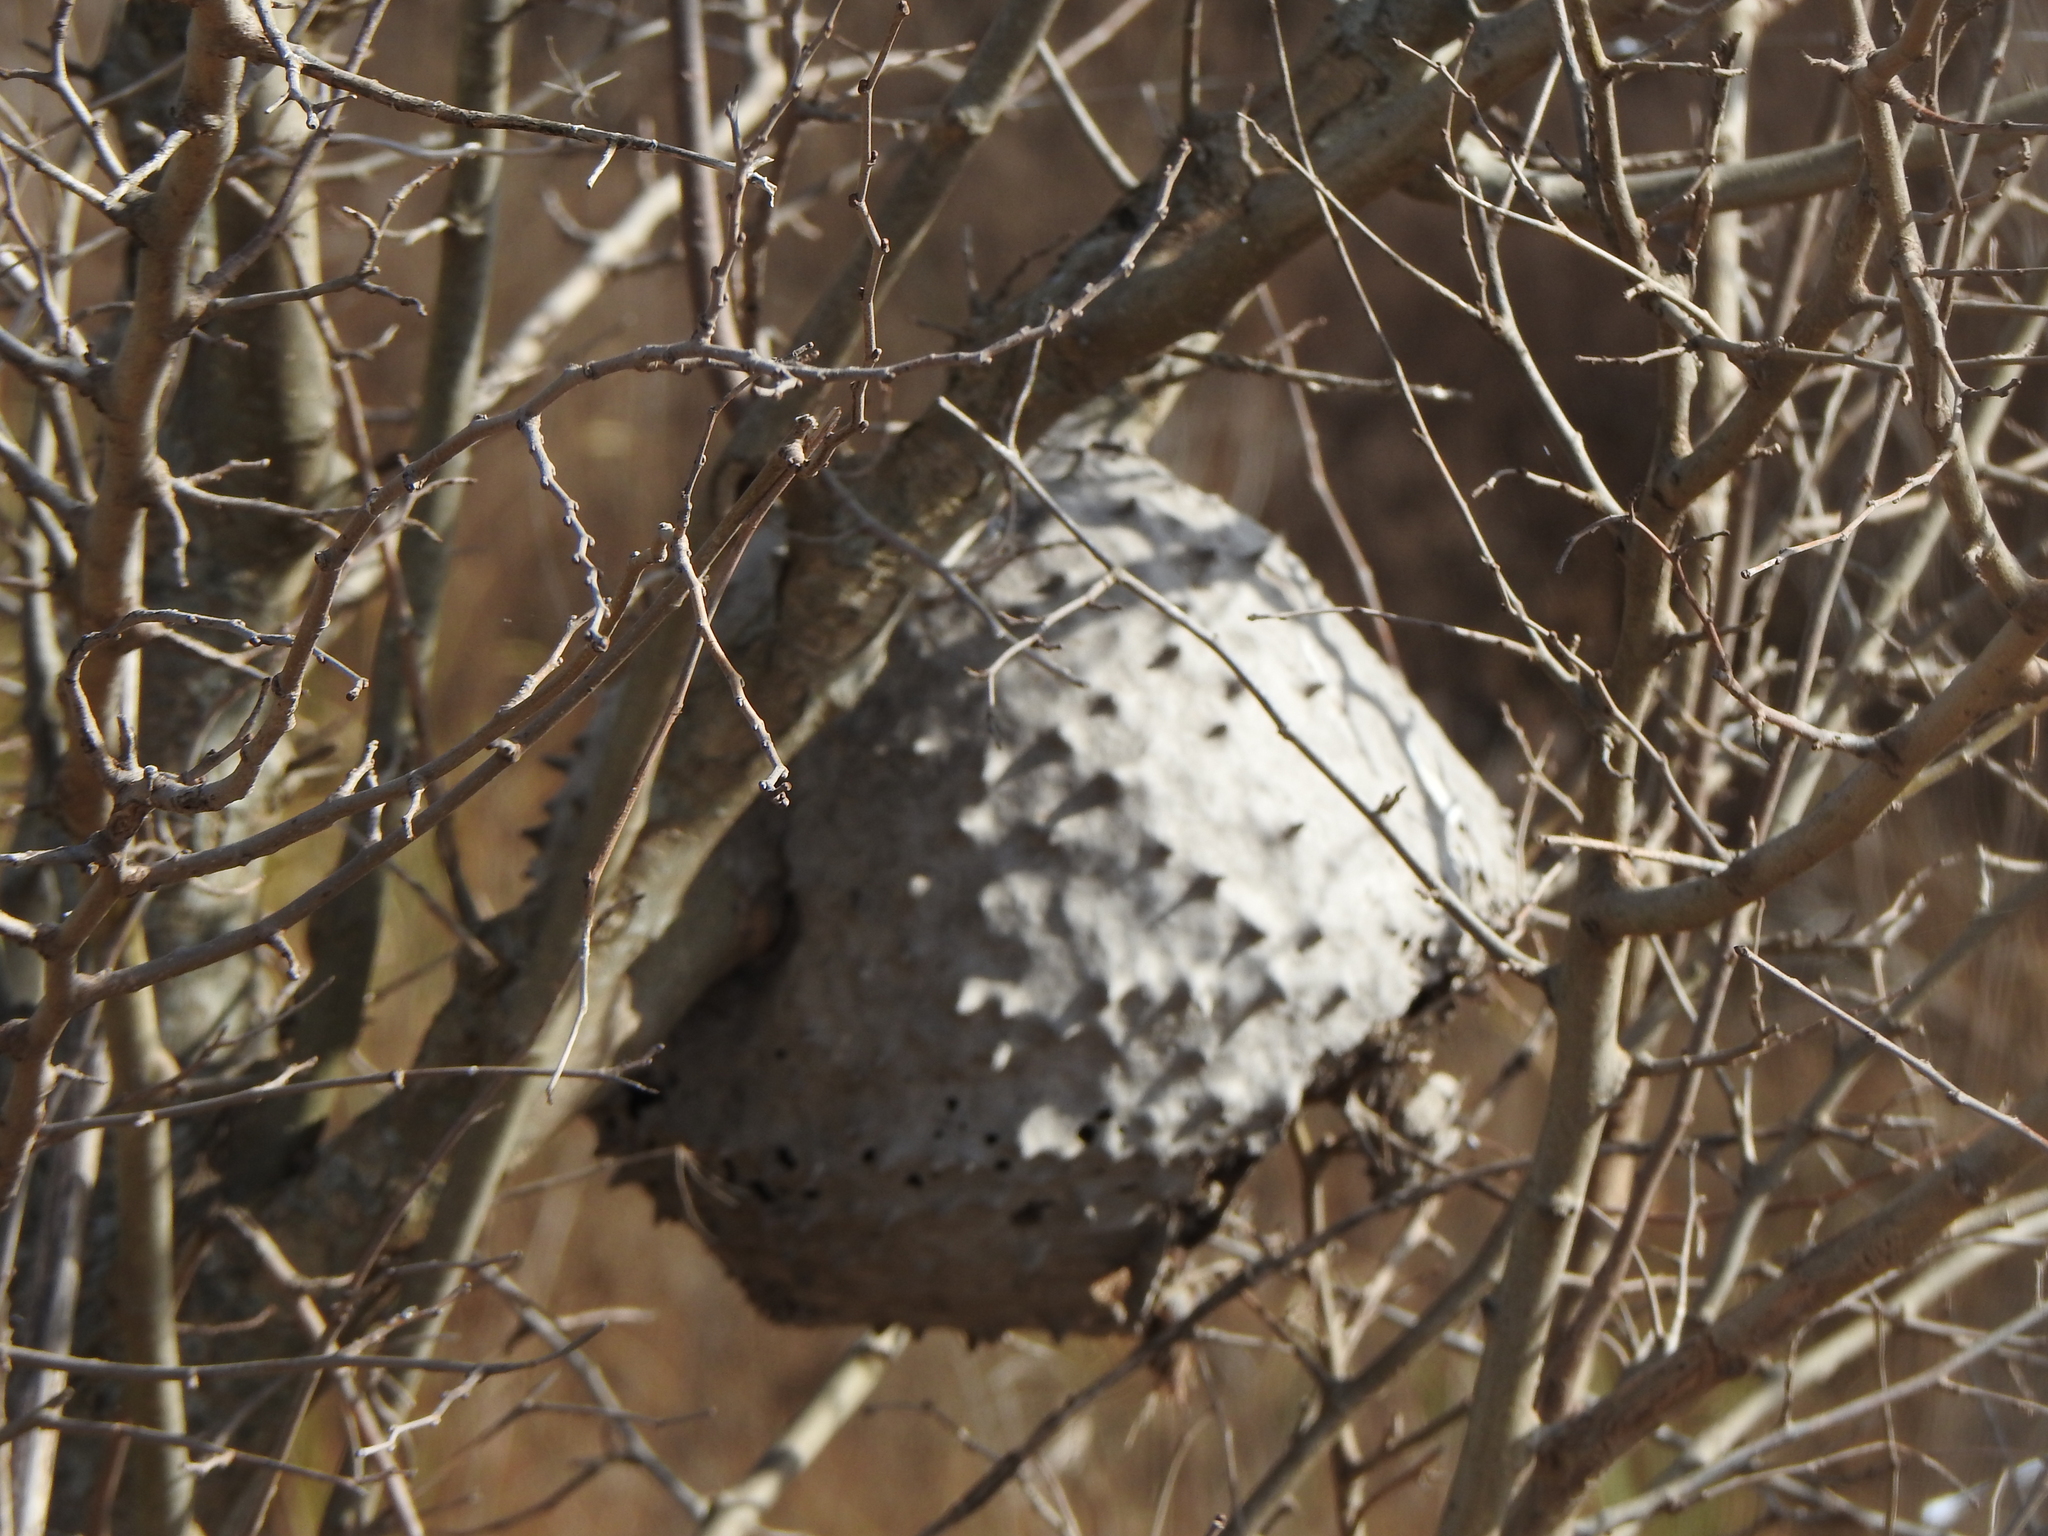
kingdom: Animalia
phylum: Arthropoda
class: Insecta
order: Hymenoptera
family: Eumenidae
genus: Polybia
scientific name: Polybia scutellaris
